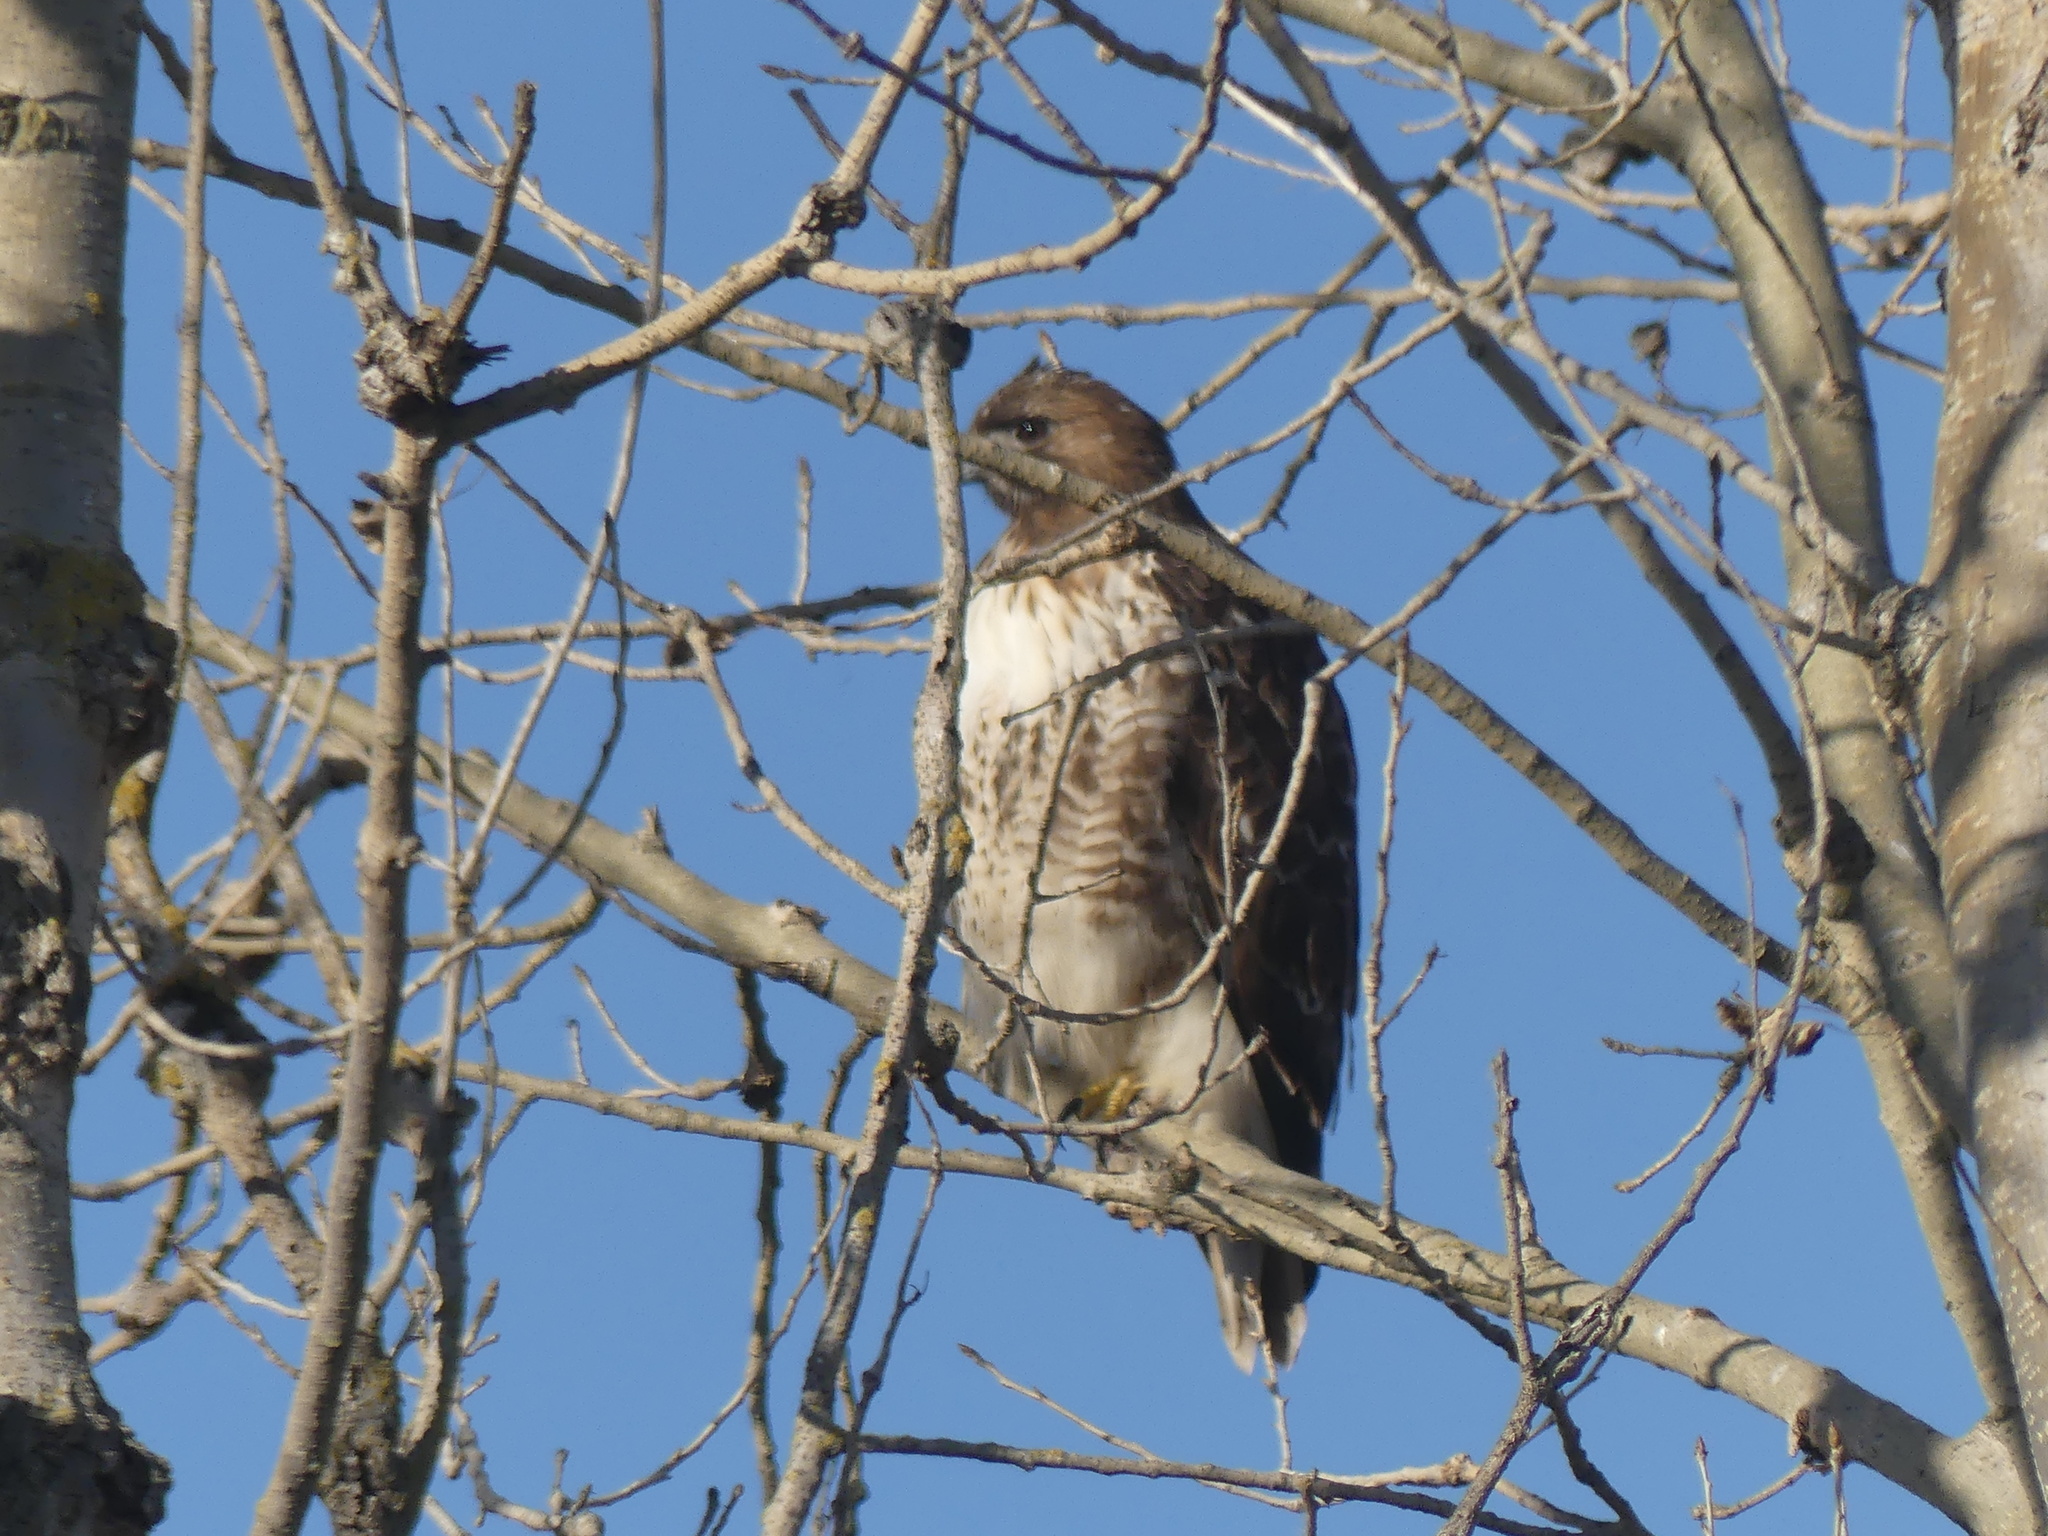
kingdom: Animalia
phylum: Chordata
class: Aves
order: Accipitriformes
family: Accipitridae
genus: Buteo
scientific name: Buteo jamaicensis
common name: Red-tailed hawk
